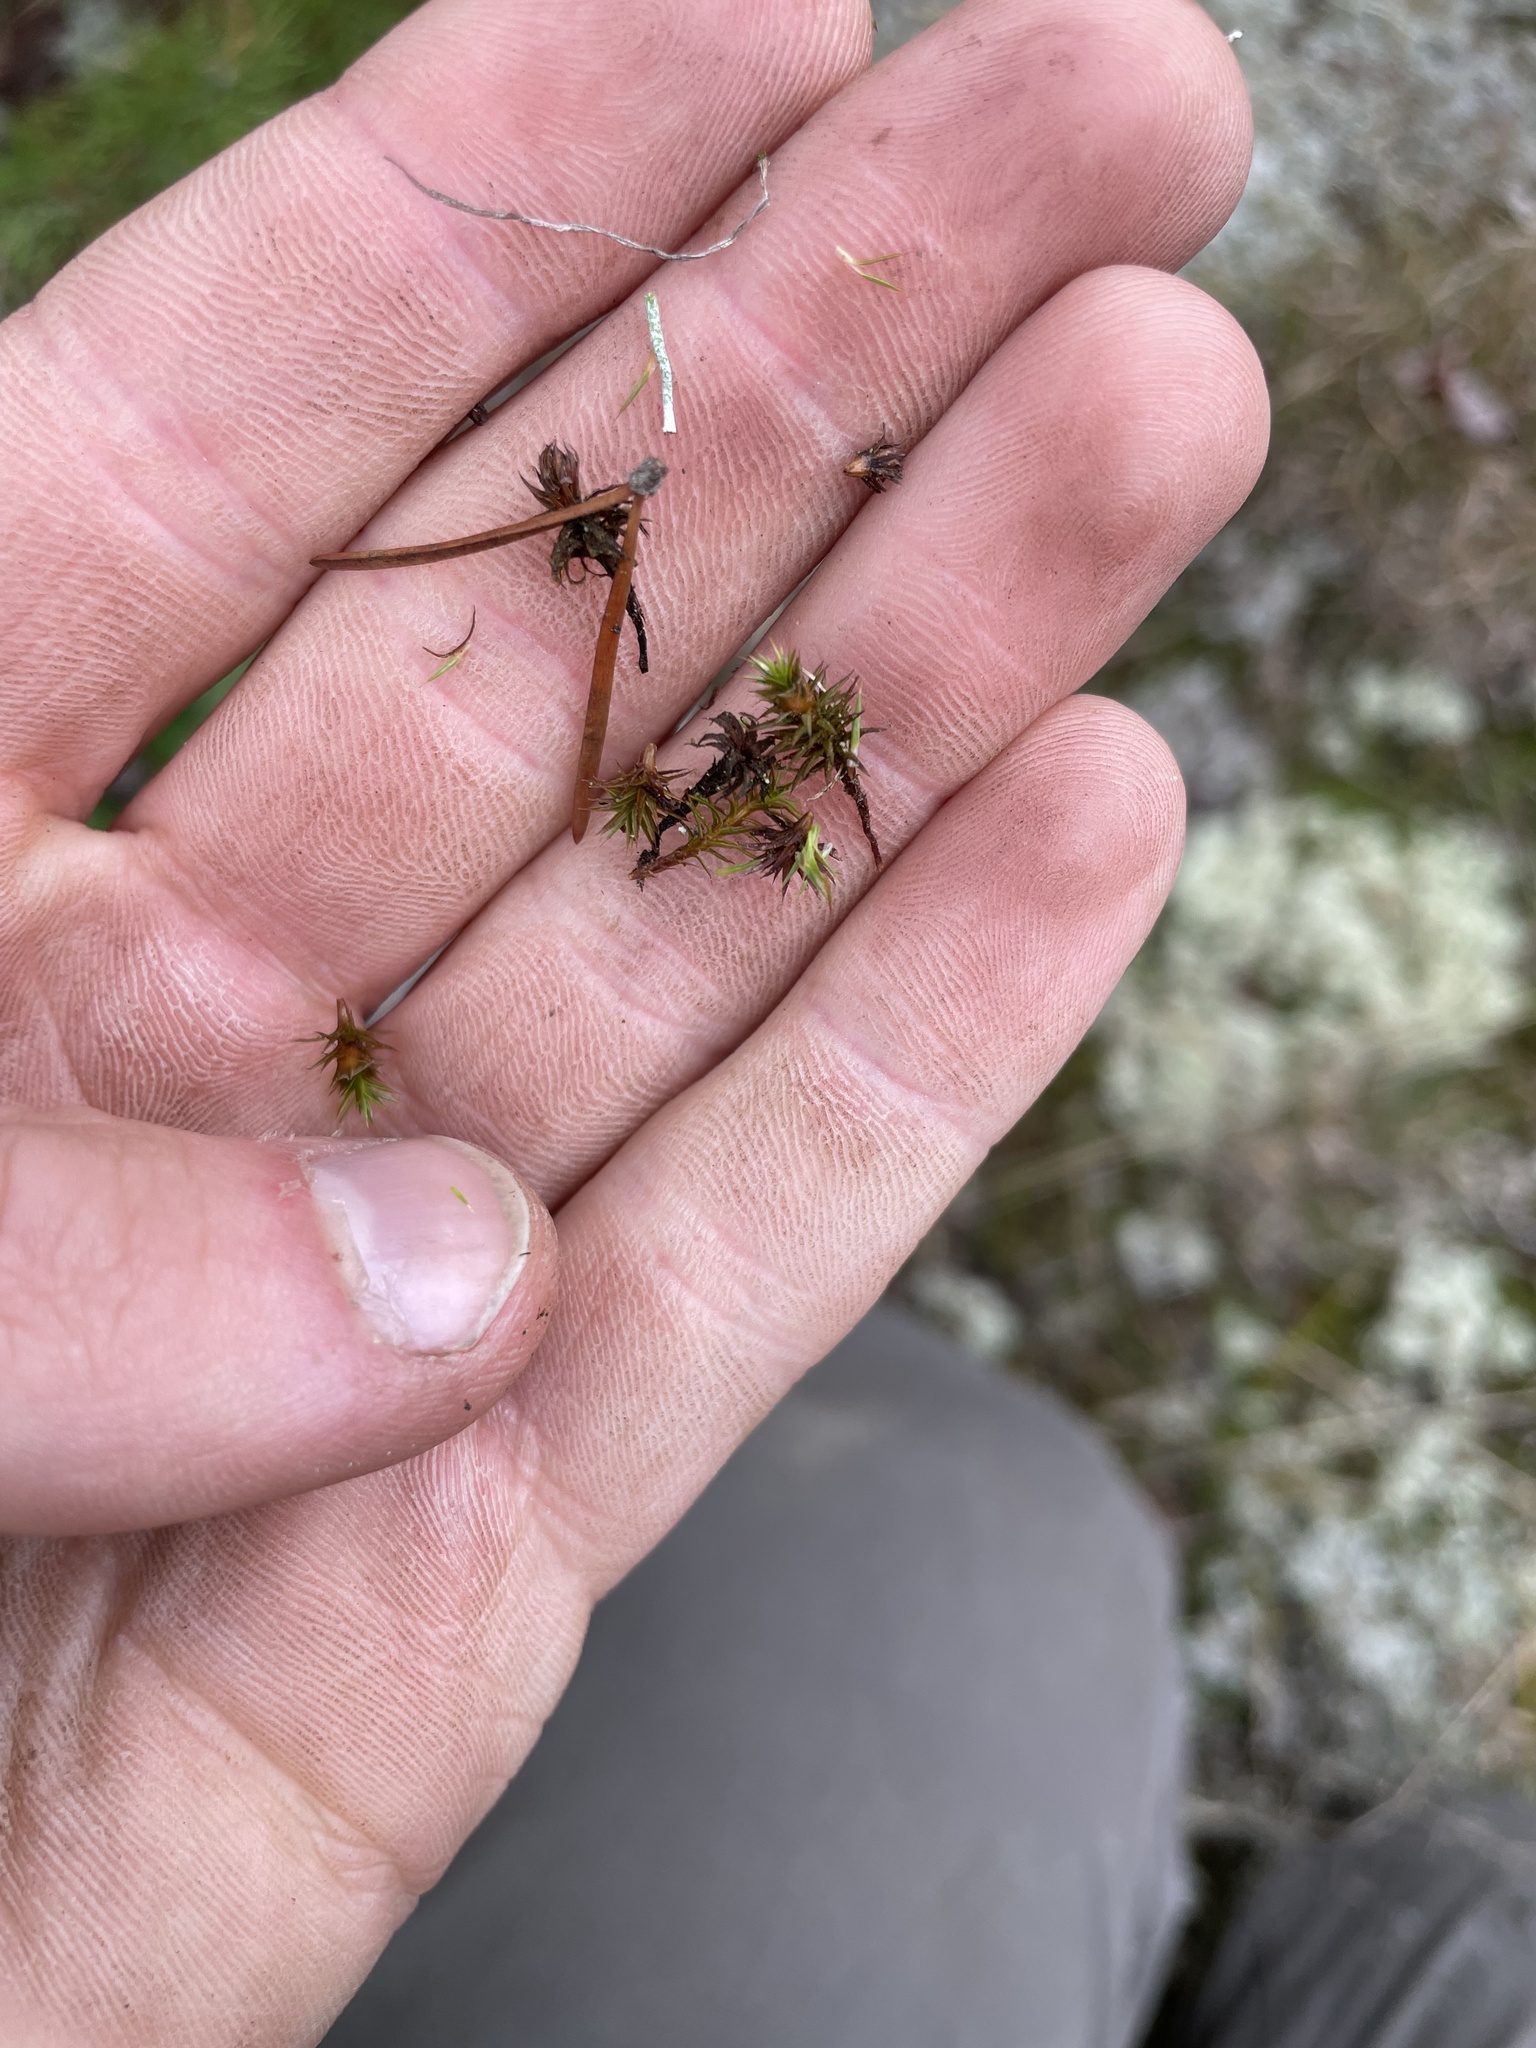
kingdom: Plantae
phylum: Bryophyta
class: Polytrichopsida
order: Polytrichales
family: Polytrichaceae
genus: Polytrichum
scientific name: Polytrichum juniperinum
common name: Juniper haircap moss
